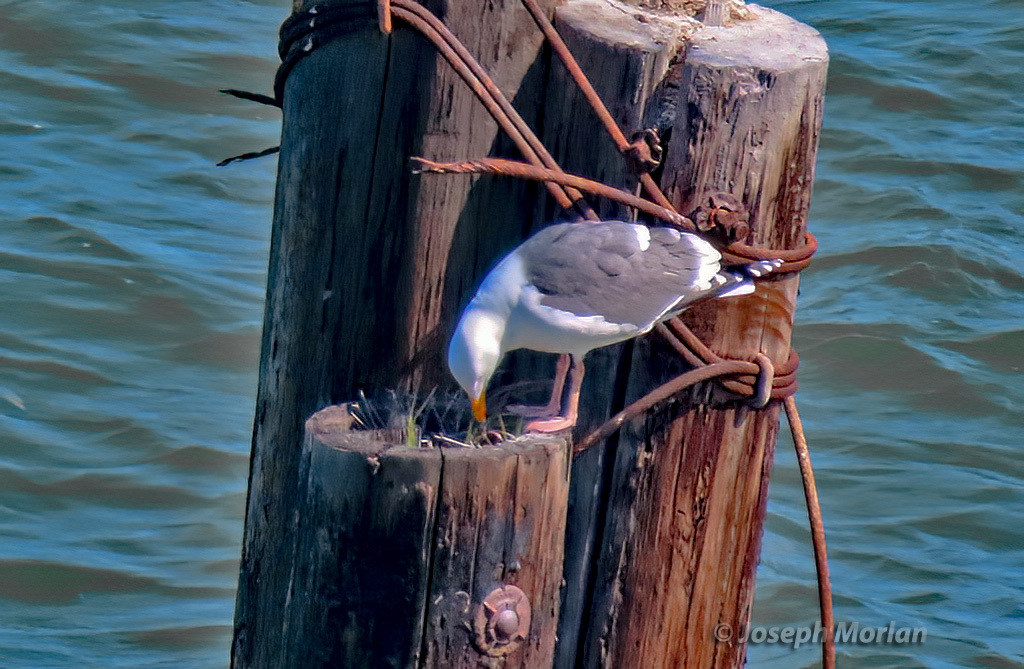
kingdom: Animalia
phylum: Chordata
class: Aves
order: Charadriiformes
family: Laridae
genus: Larus
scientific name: Larus occidentalis
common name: Western gull
